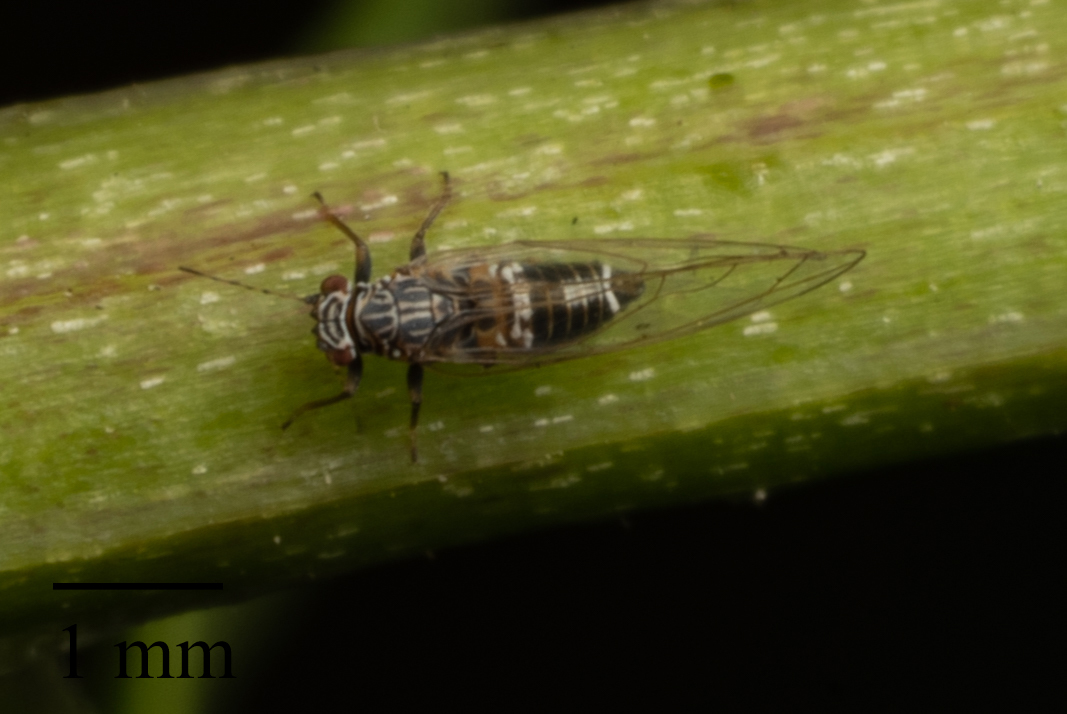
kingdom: Animalia
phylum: Arthropoda
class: Insecta
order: Hemiptera
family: Triozidae
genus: Bactericera
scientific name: Bactericera cockerelli
